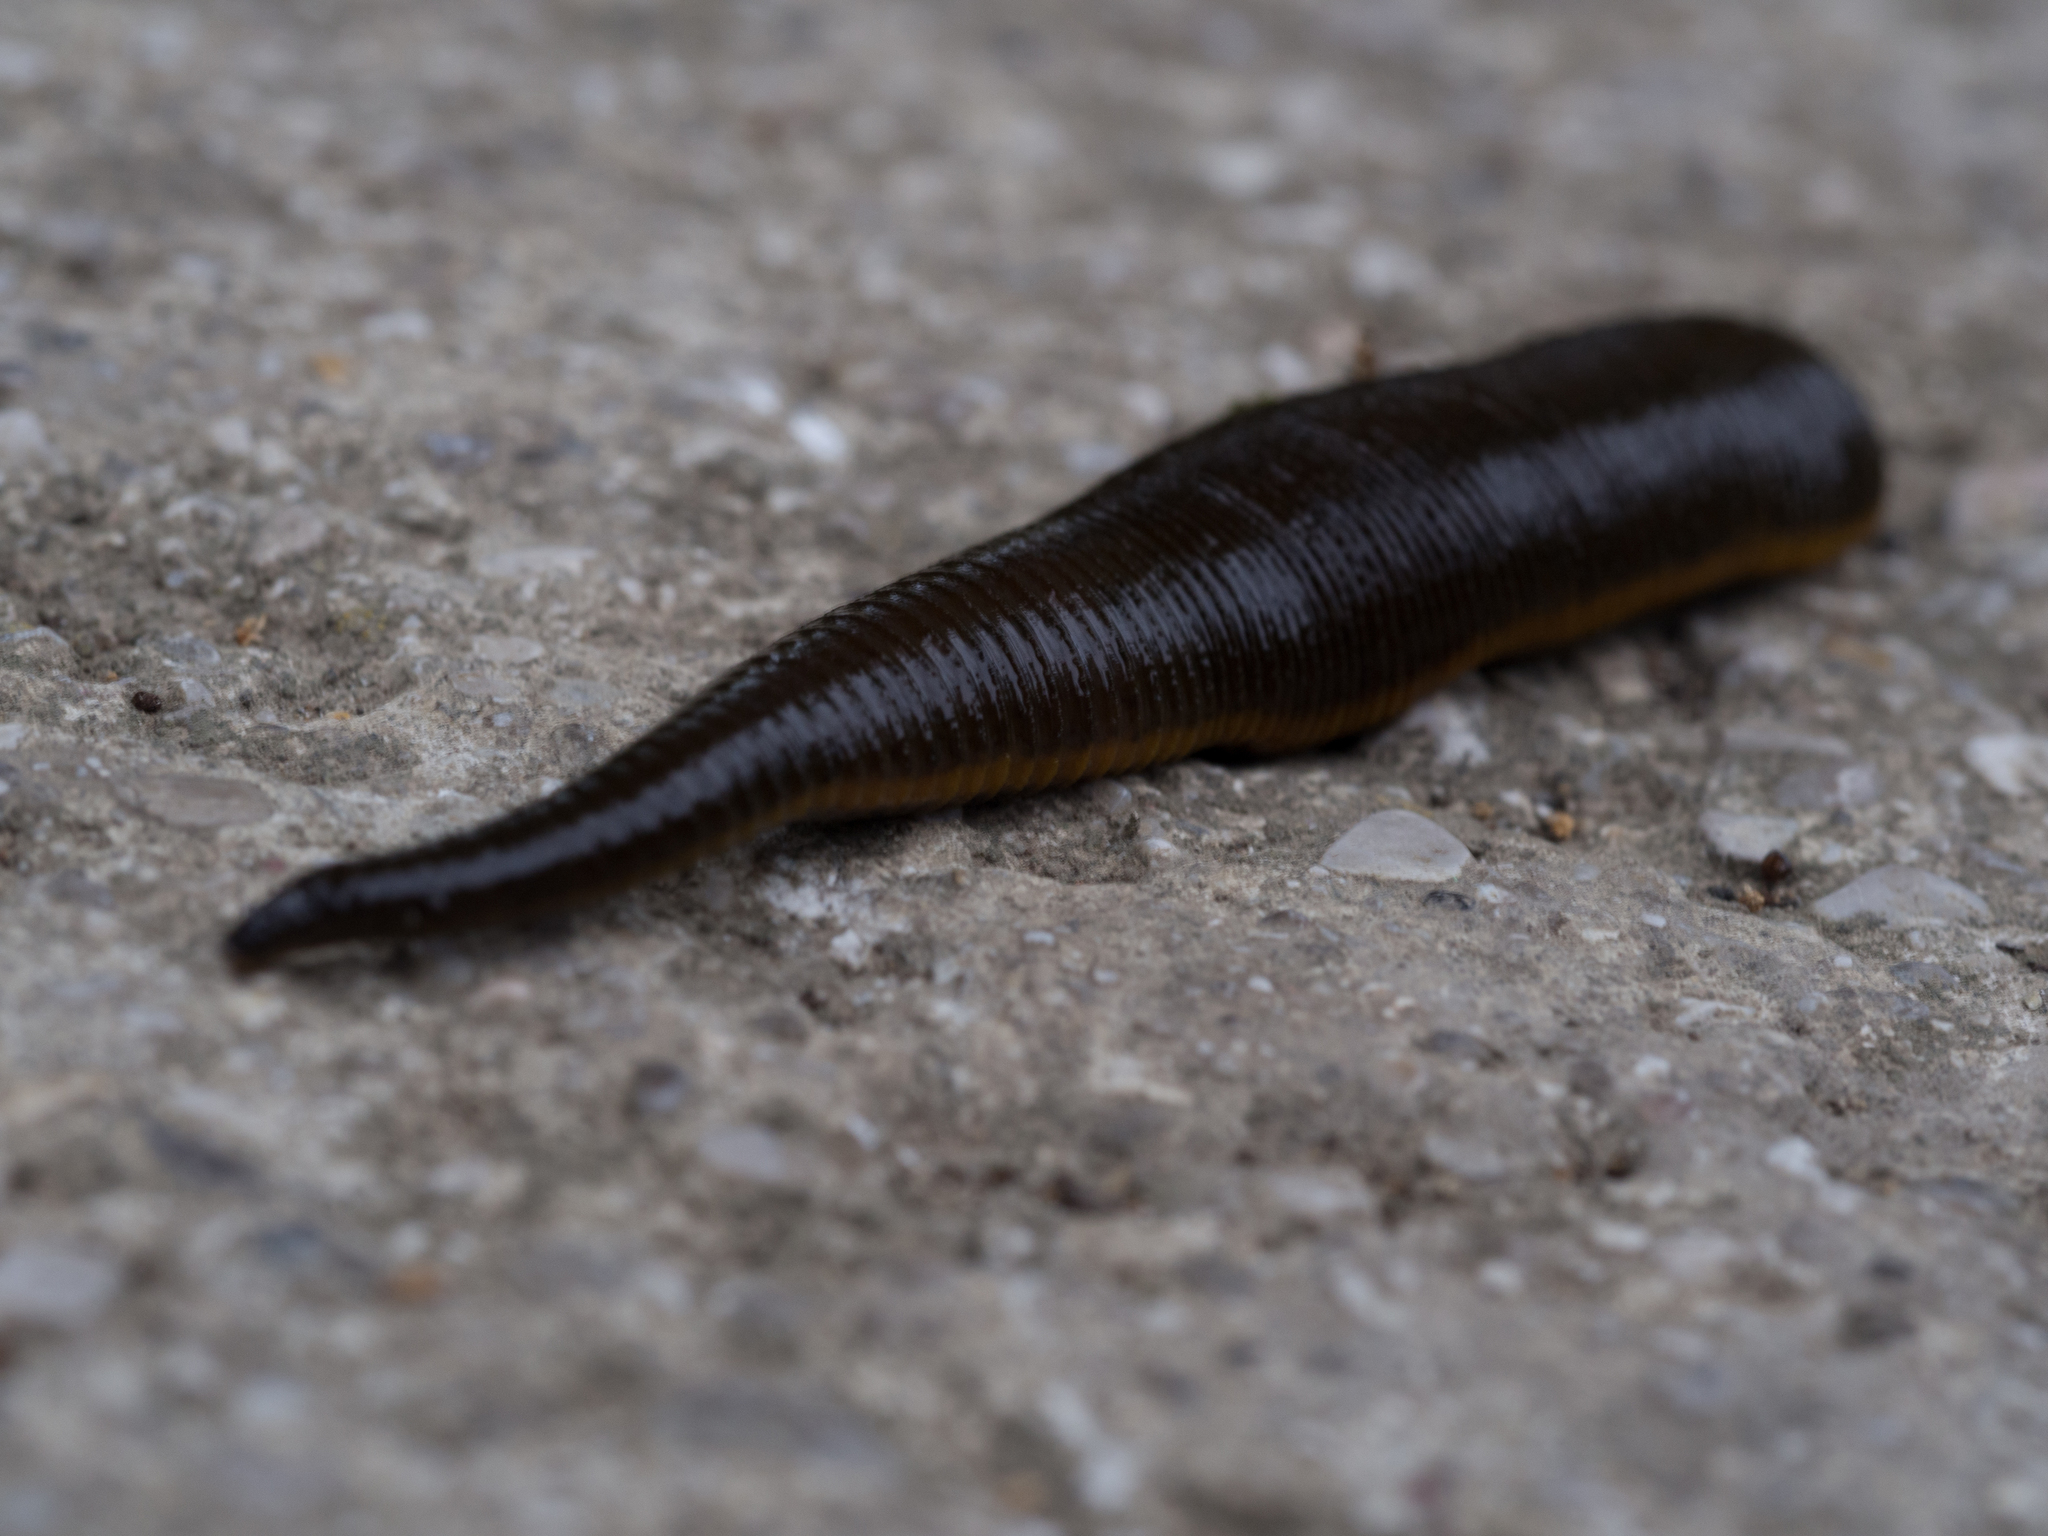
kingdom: Animalia
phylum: Annelida
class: Clitellata
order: Arhynchobdellida
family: Haemopidae
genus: Haemopis
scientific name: Haemopis sanguisuga
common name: Horse leech
